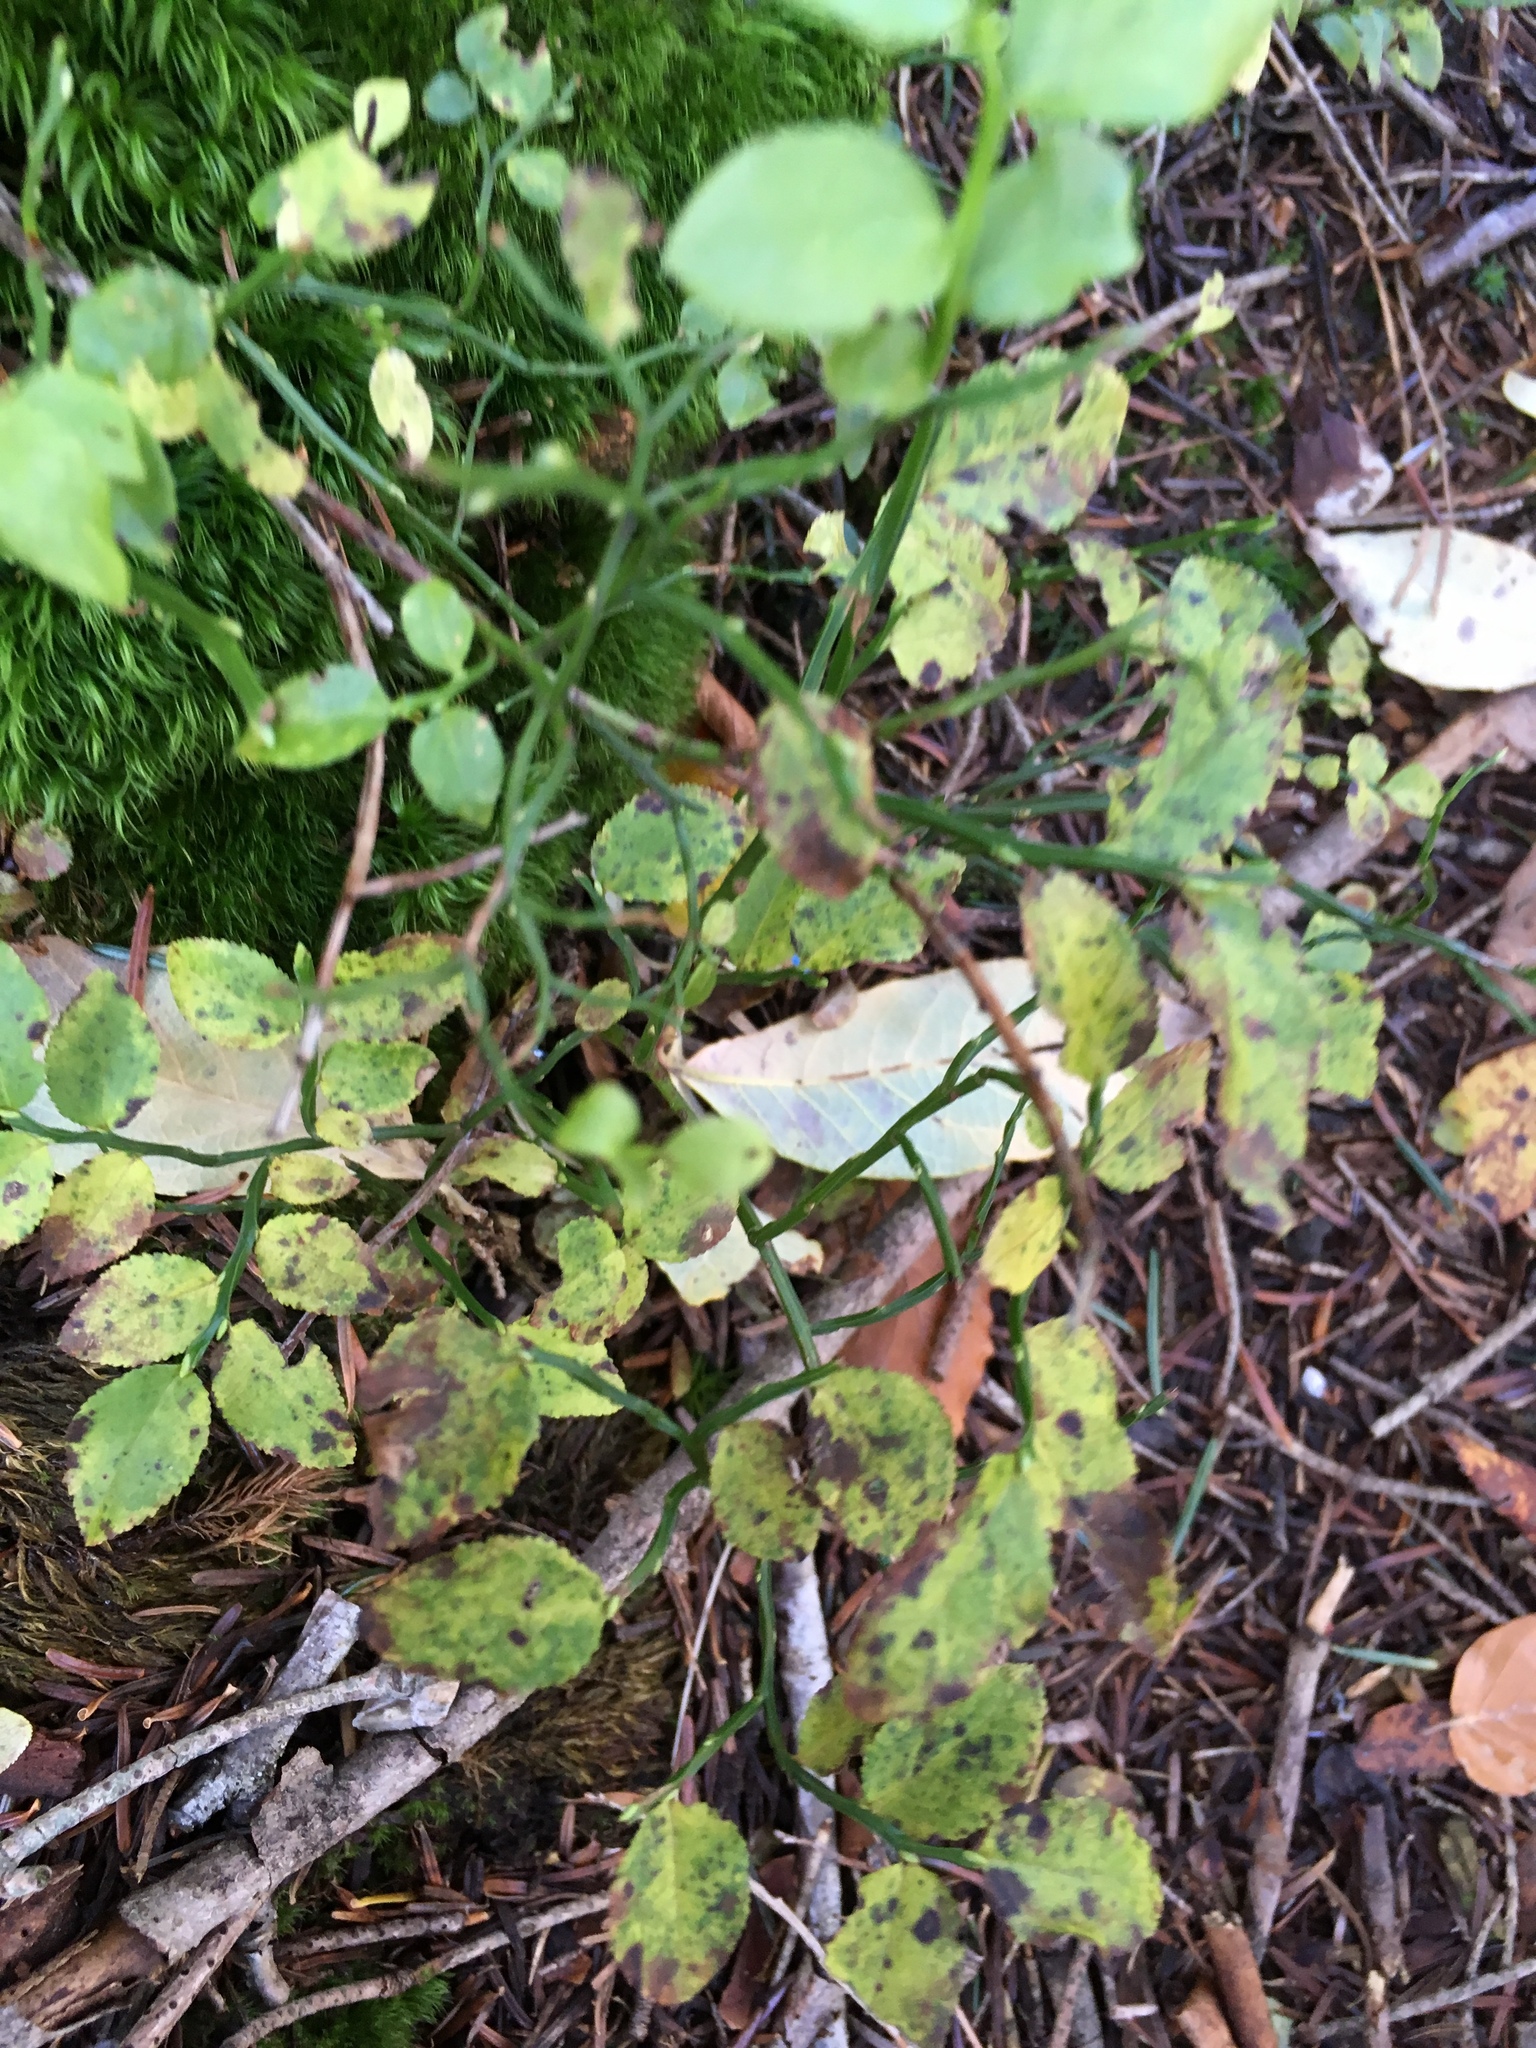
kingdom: Plantae
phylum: Tracheophyta
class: Magnoliopsida
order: Ericales
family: Ericaceae
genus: Vaccinium
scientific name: Vaccinium myrtillus
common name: Bilberry
